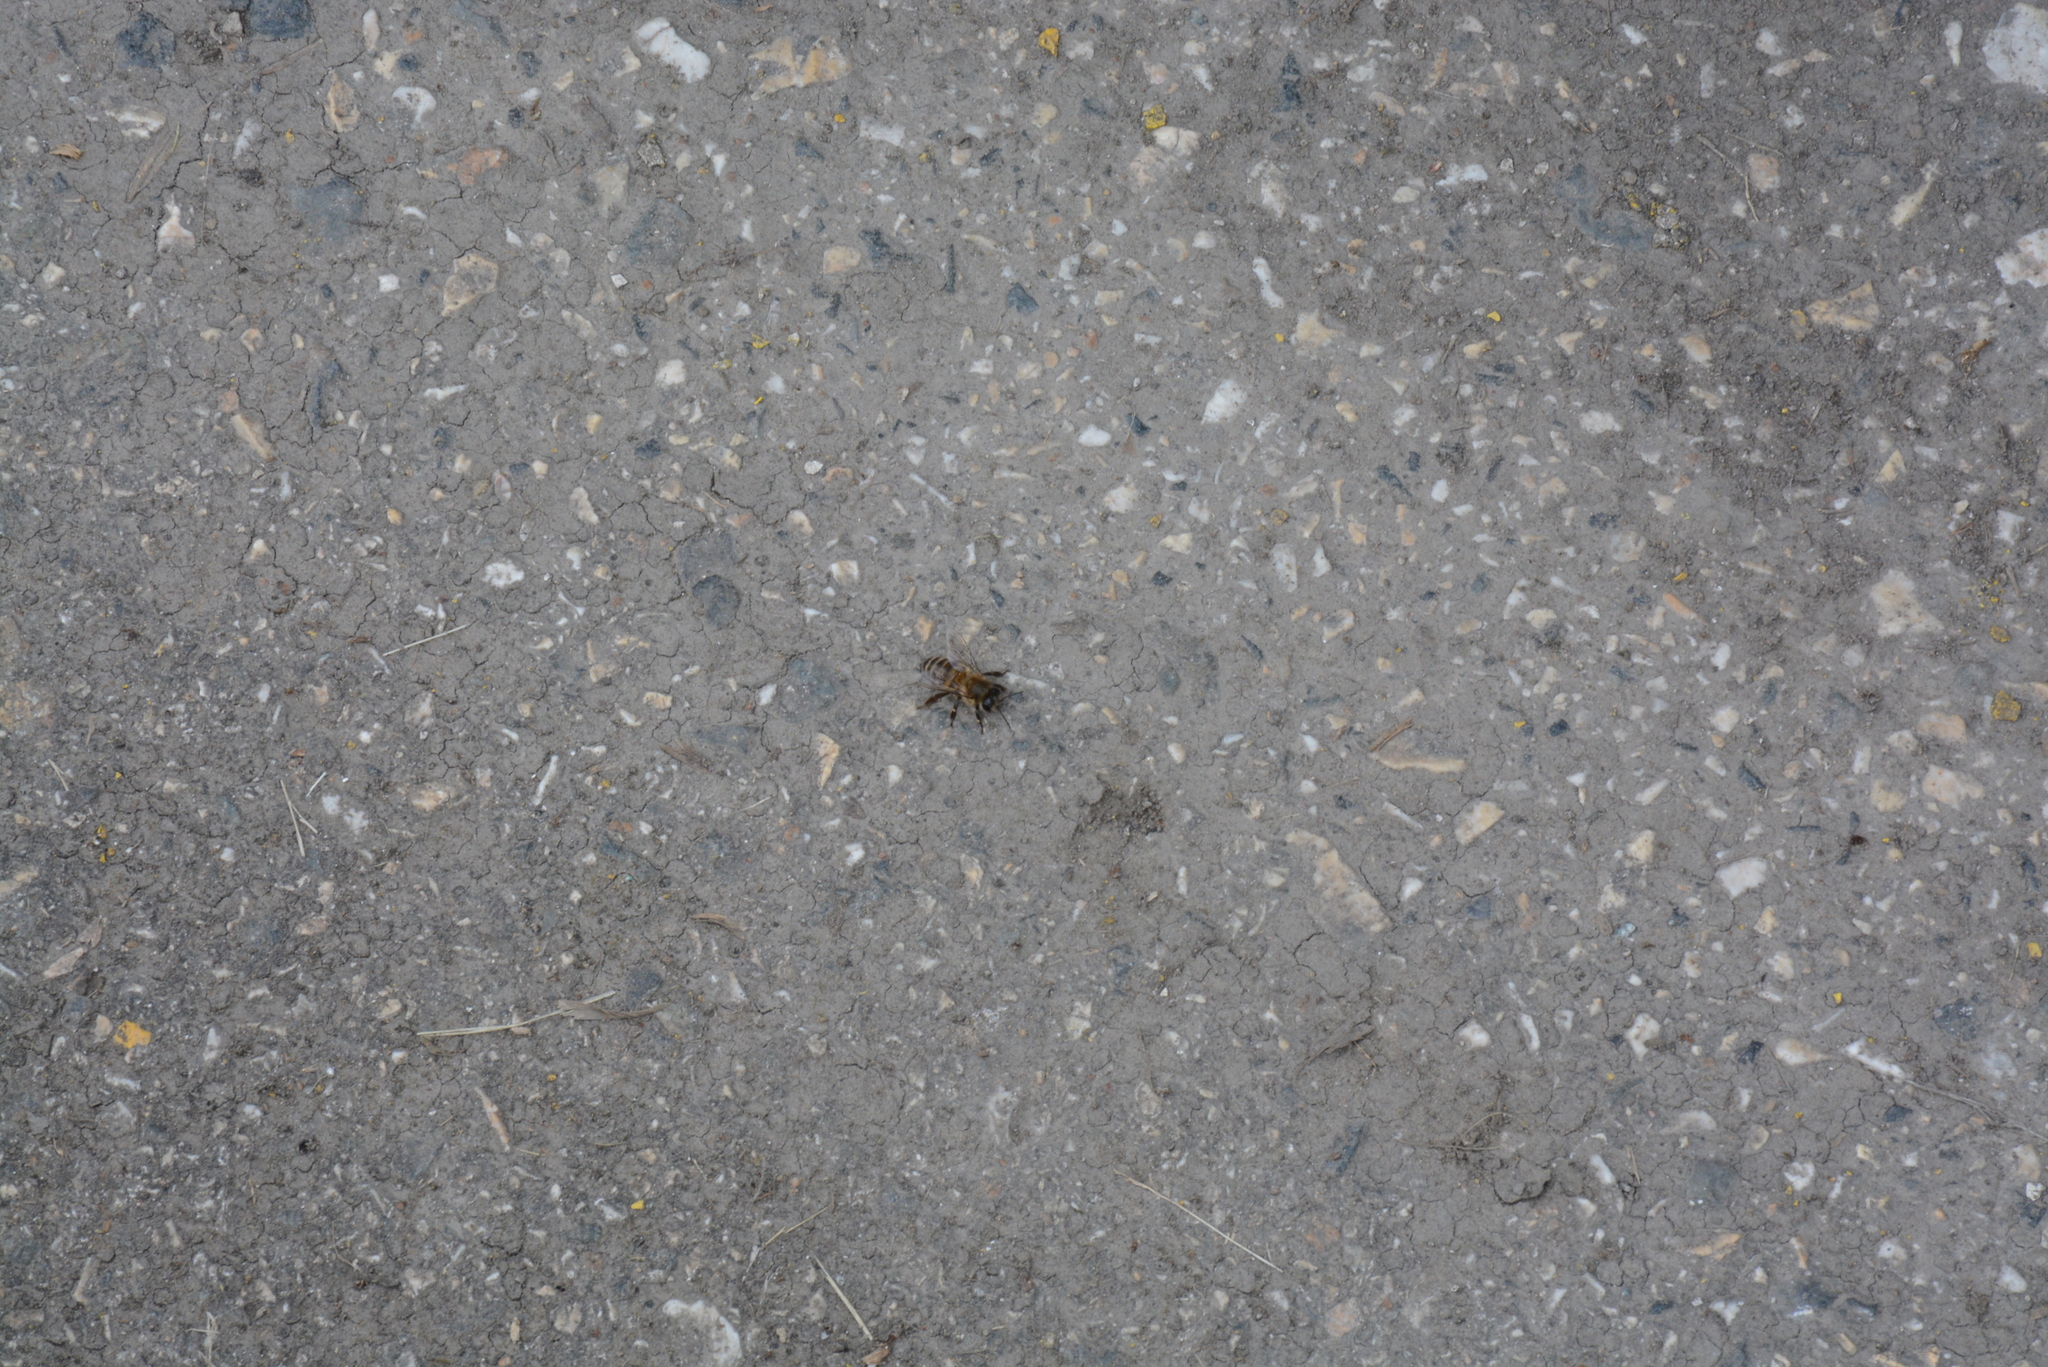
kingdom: Animalia
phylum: Arthropoda
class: Insecta
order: Hymenoptera
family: Apidae
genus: Apis
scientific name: Apis mellifera
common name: Honey bee
